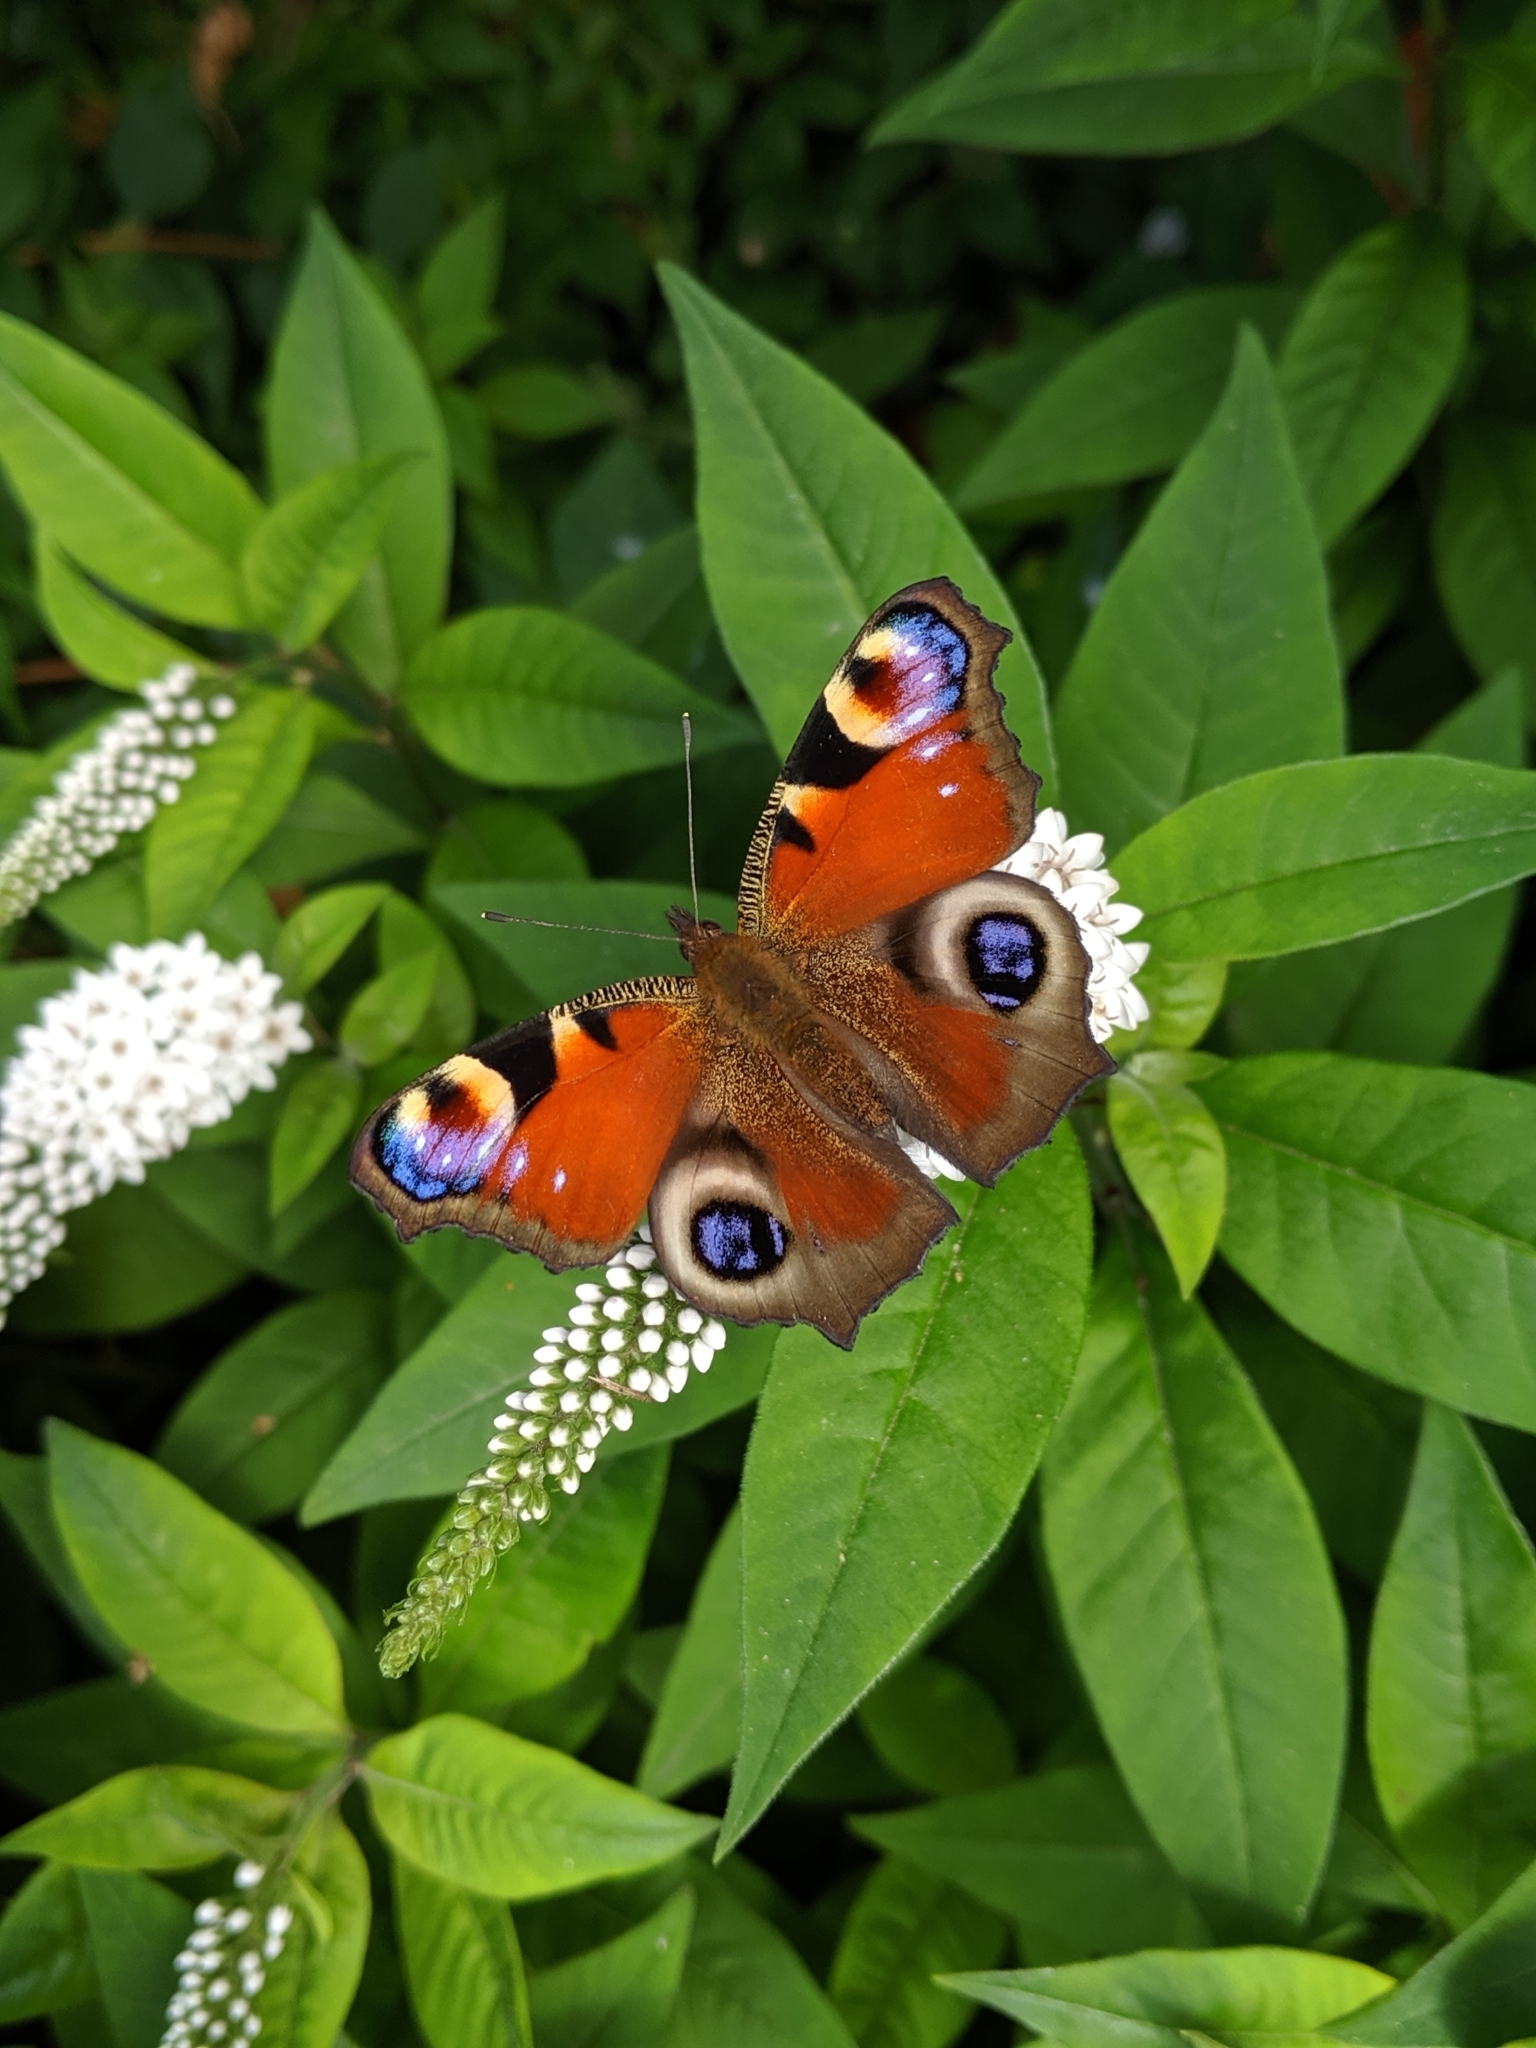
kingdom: Animalia
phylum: Arthropoda
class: Insecta
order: Lepidoptera
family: Nymphalidae
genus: Aglais
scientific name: Aglais io
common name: Peacock
